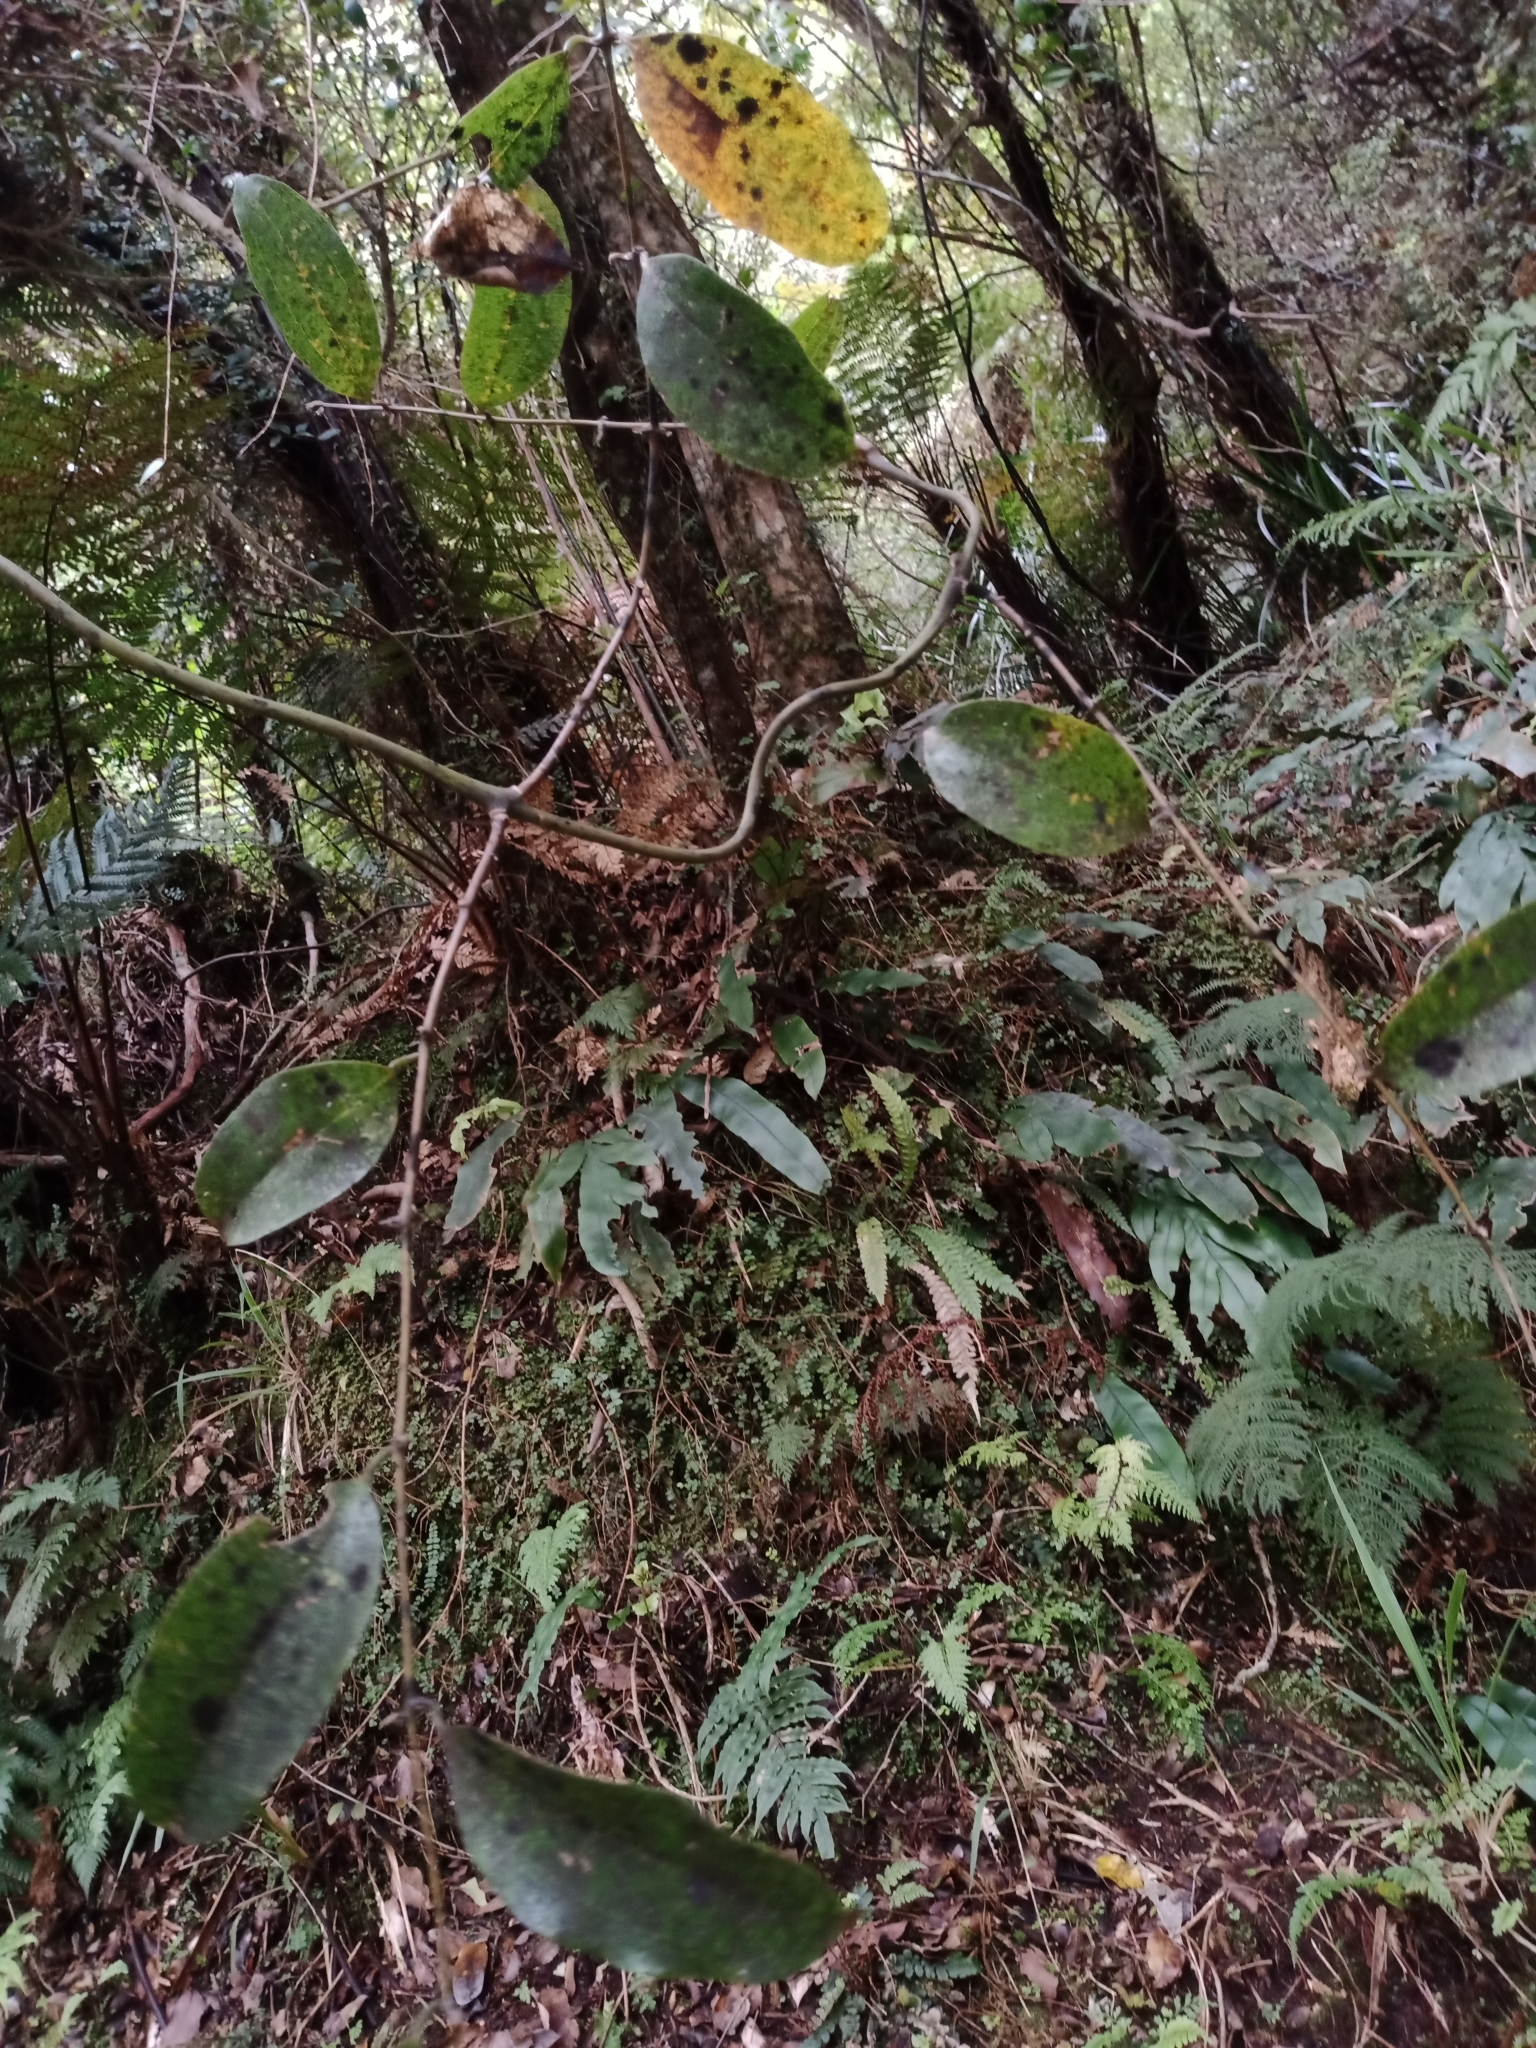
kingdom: Plantae
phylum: Tracheophyta
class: Liliopsida
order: Liliales
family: Ripogonaceae
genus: Ripogonum
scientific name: Ripogonum scandens
